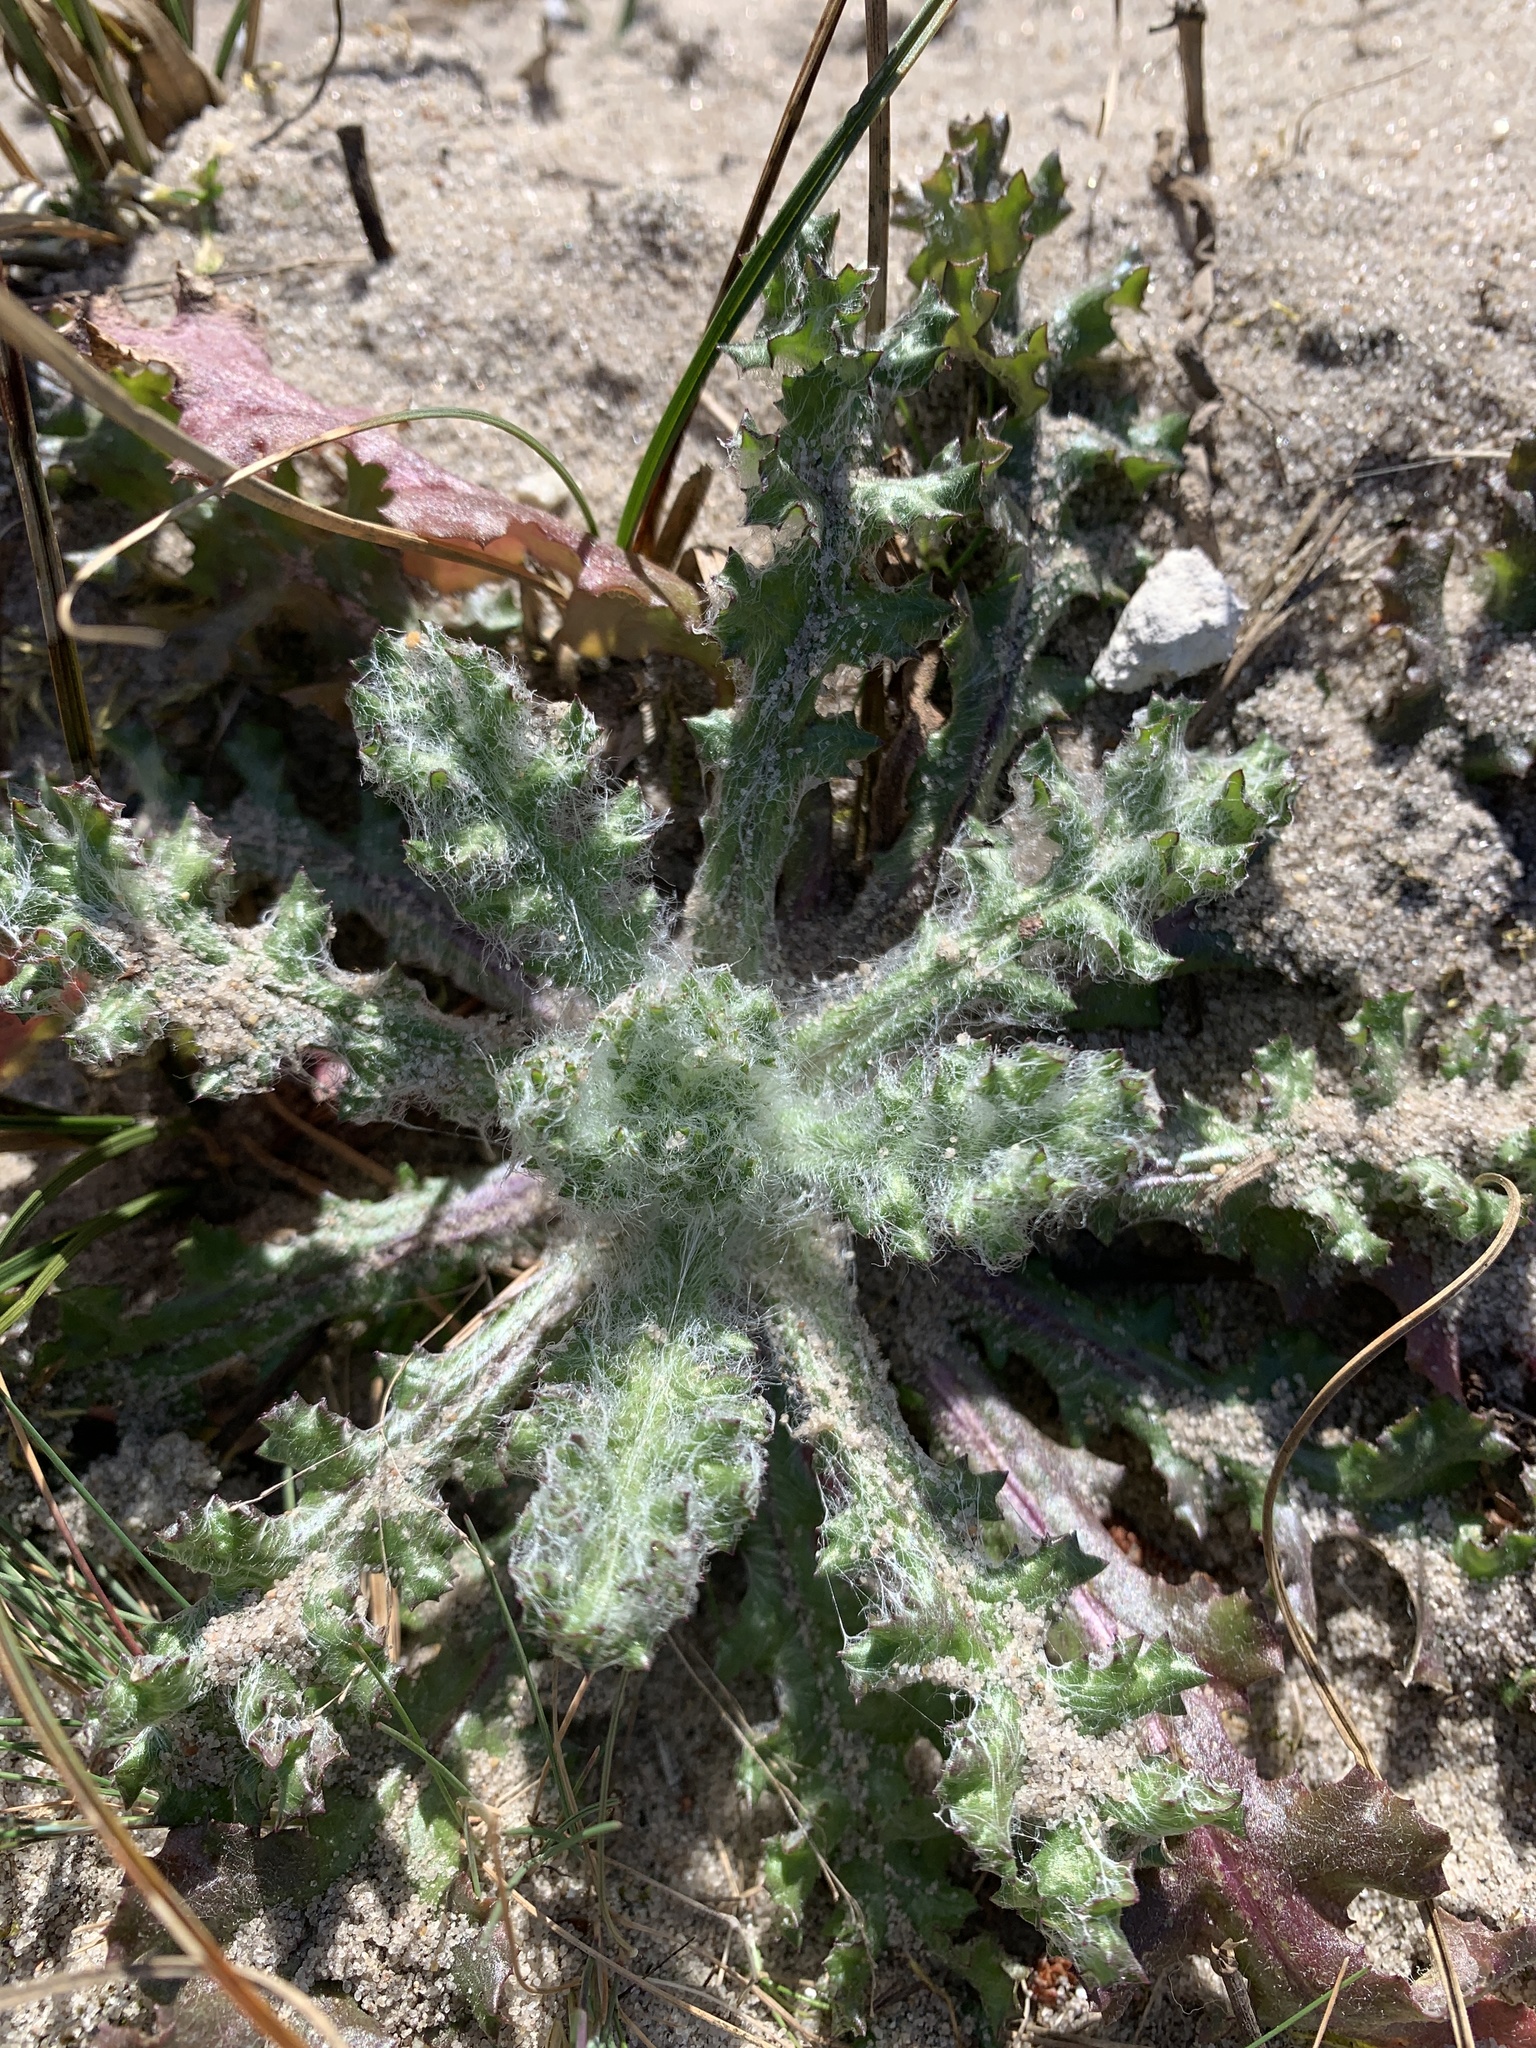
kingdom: Plantae
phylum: Tracheophyta
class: Magnoliopsida
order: Asterales
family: Asteraceae
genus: Senecio
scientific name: Senecio vernalis
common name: Eastern groundsel
